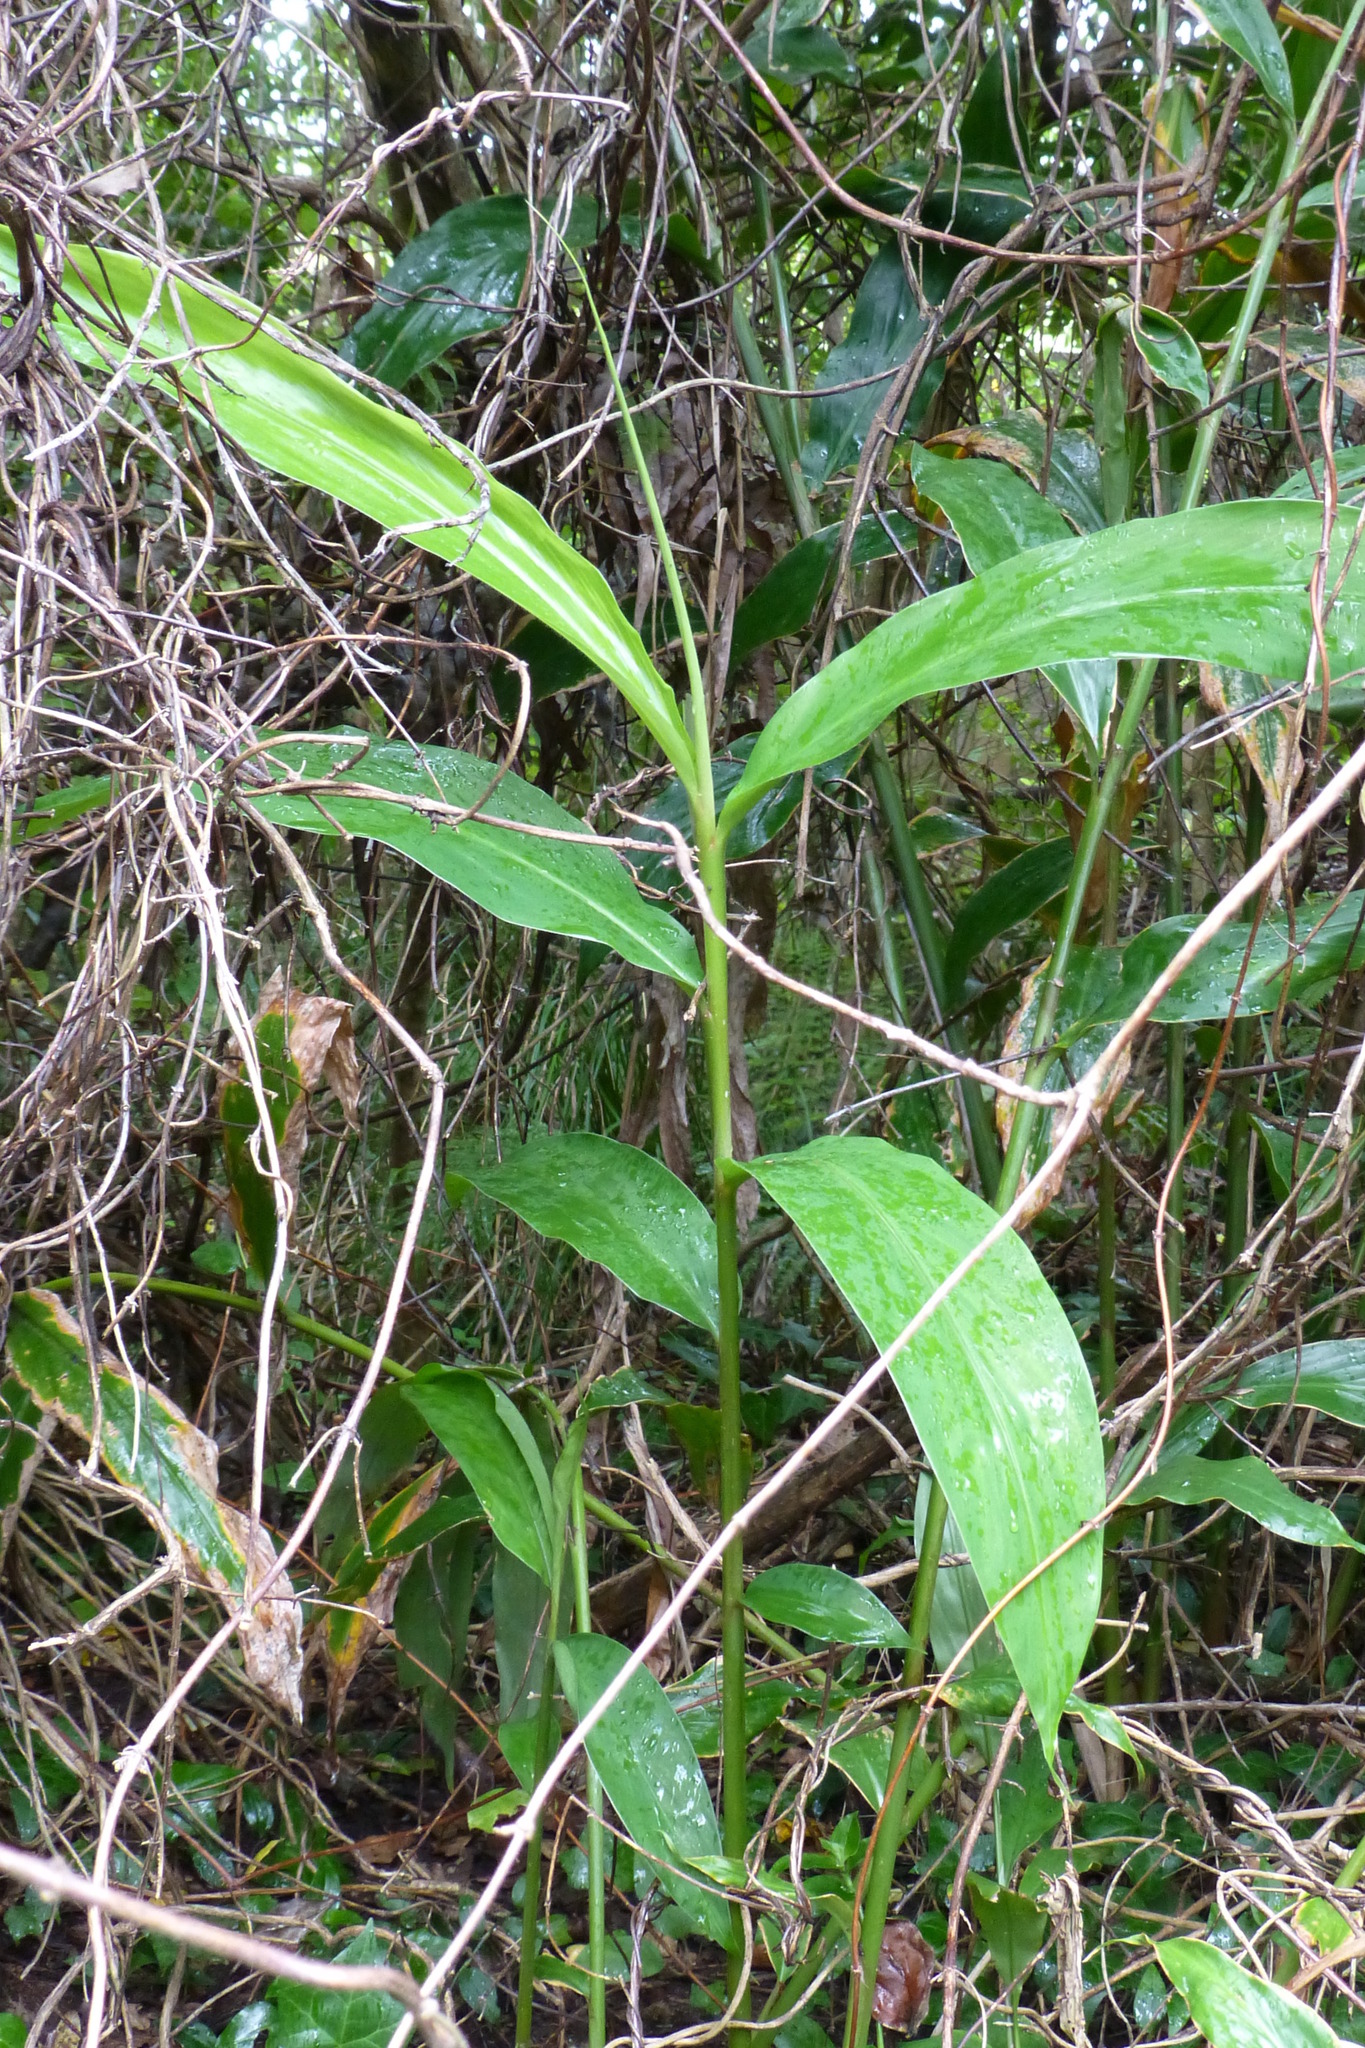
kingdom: Plantae
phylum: Tracheophyta
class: Liliopsida
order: Zingiberales
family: Zingiberaceae
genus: Hedychium
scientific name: Hedychium gardnerianum
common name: Himalayan ginger
